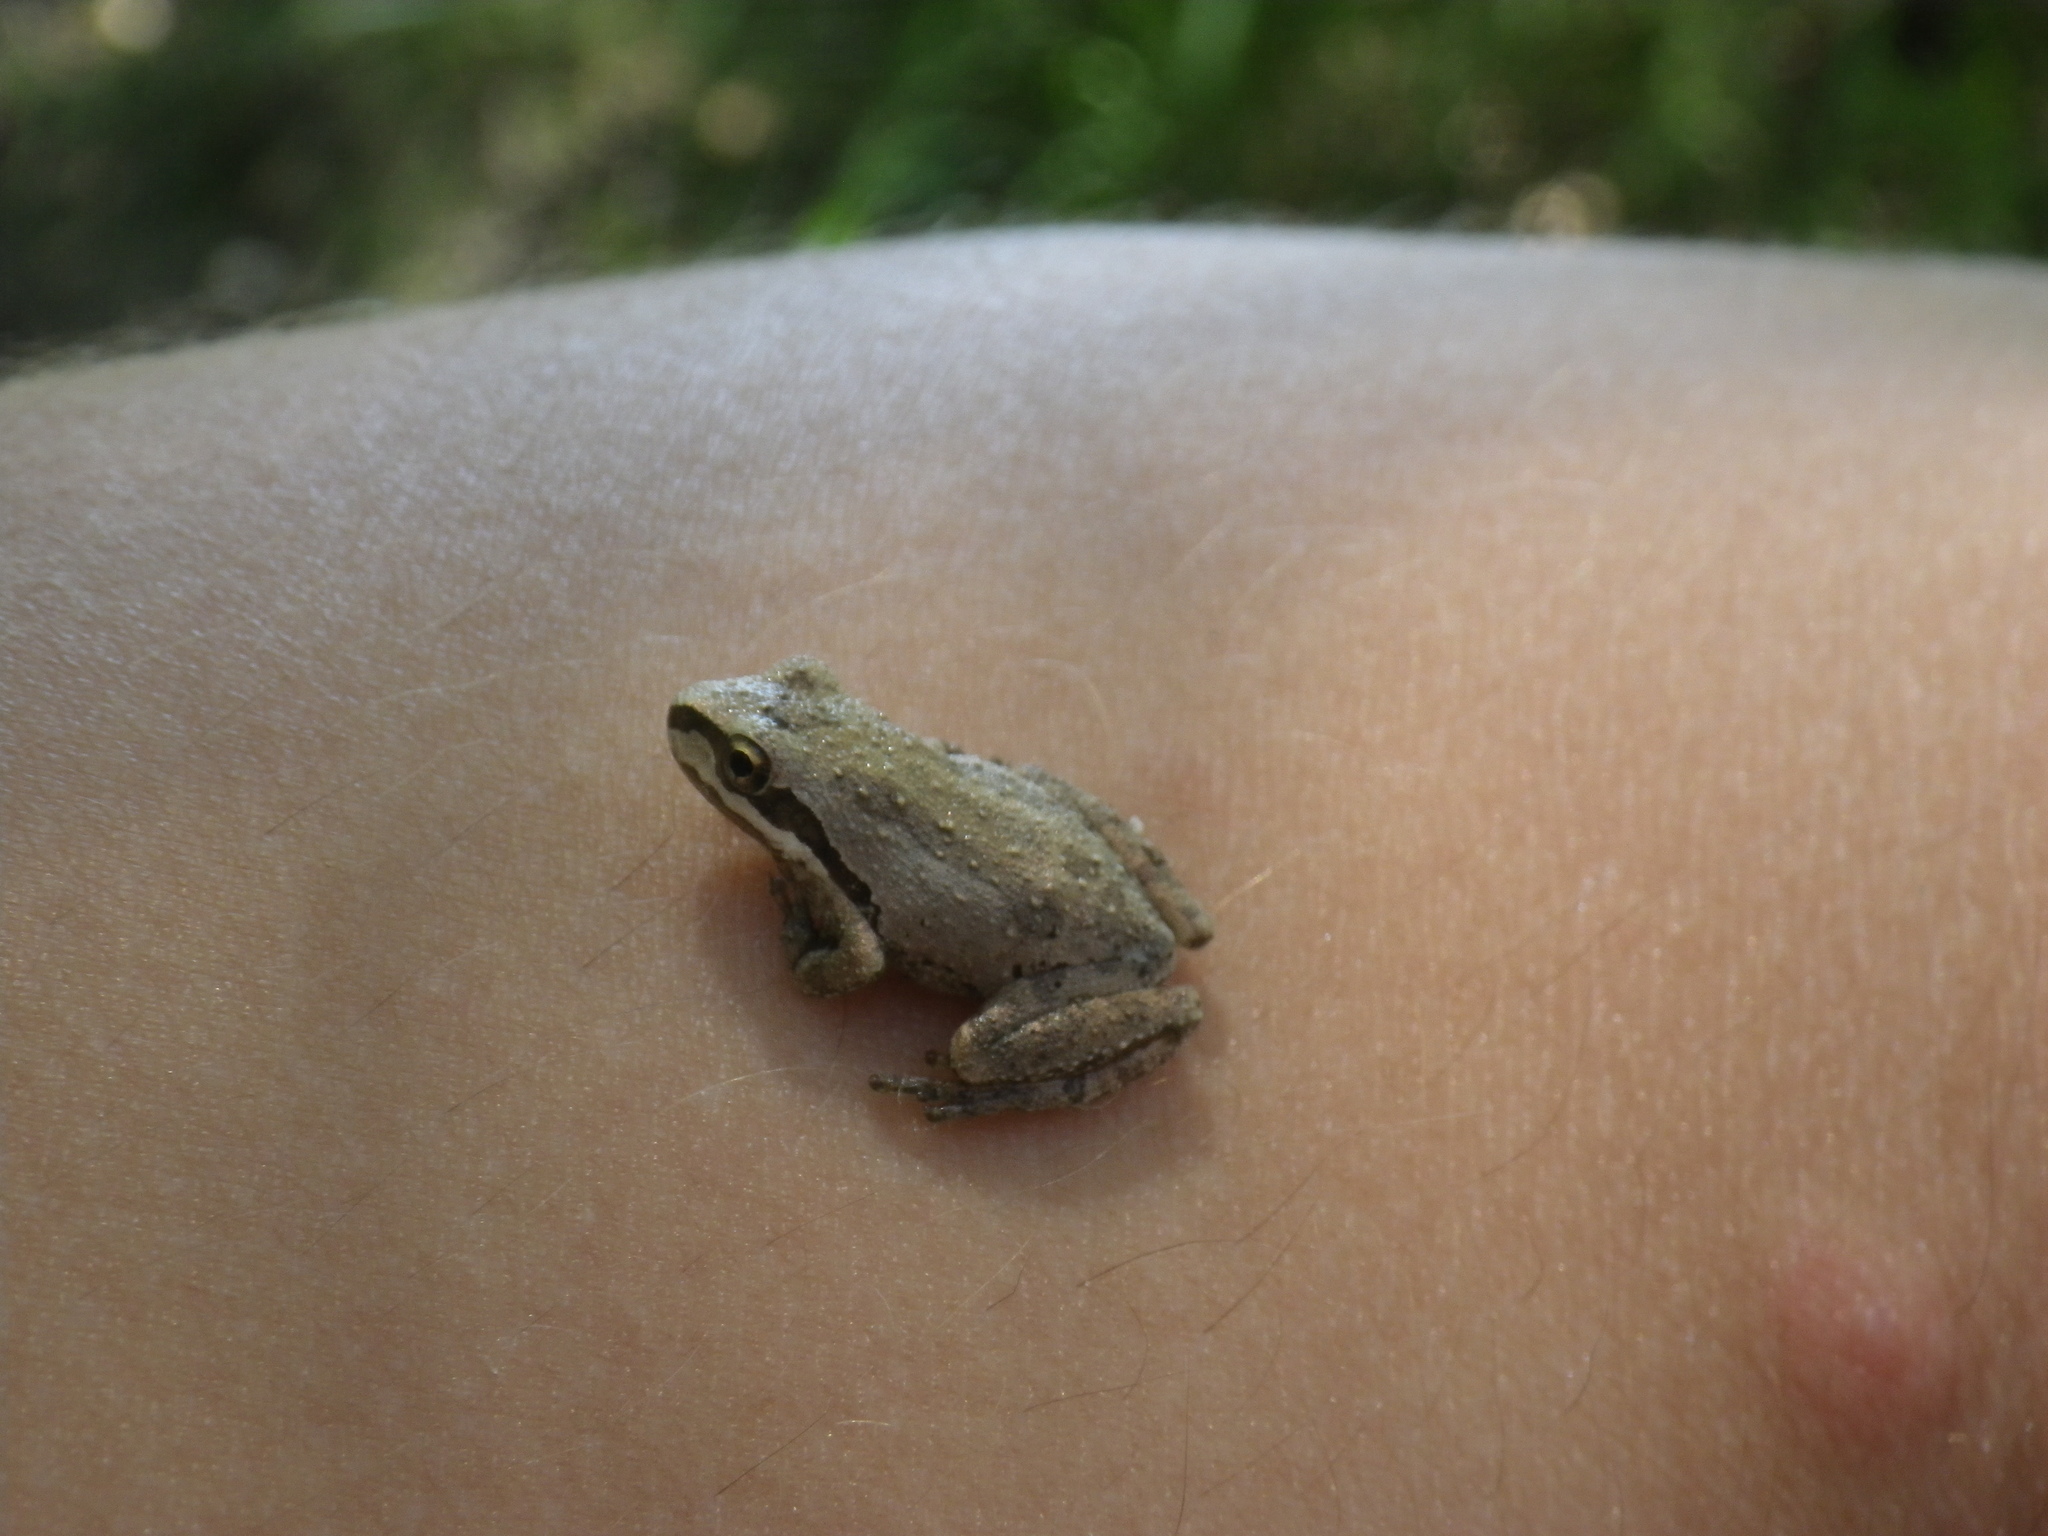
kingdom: Animalia
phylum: Chordata
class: Amphibia
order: Anura
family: Hylidae
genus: Pseudacris
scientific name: Pseudacris regilla
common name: Pacific chorus frog
